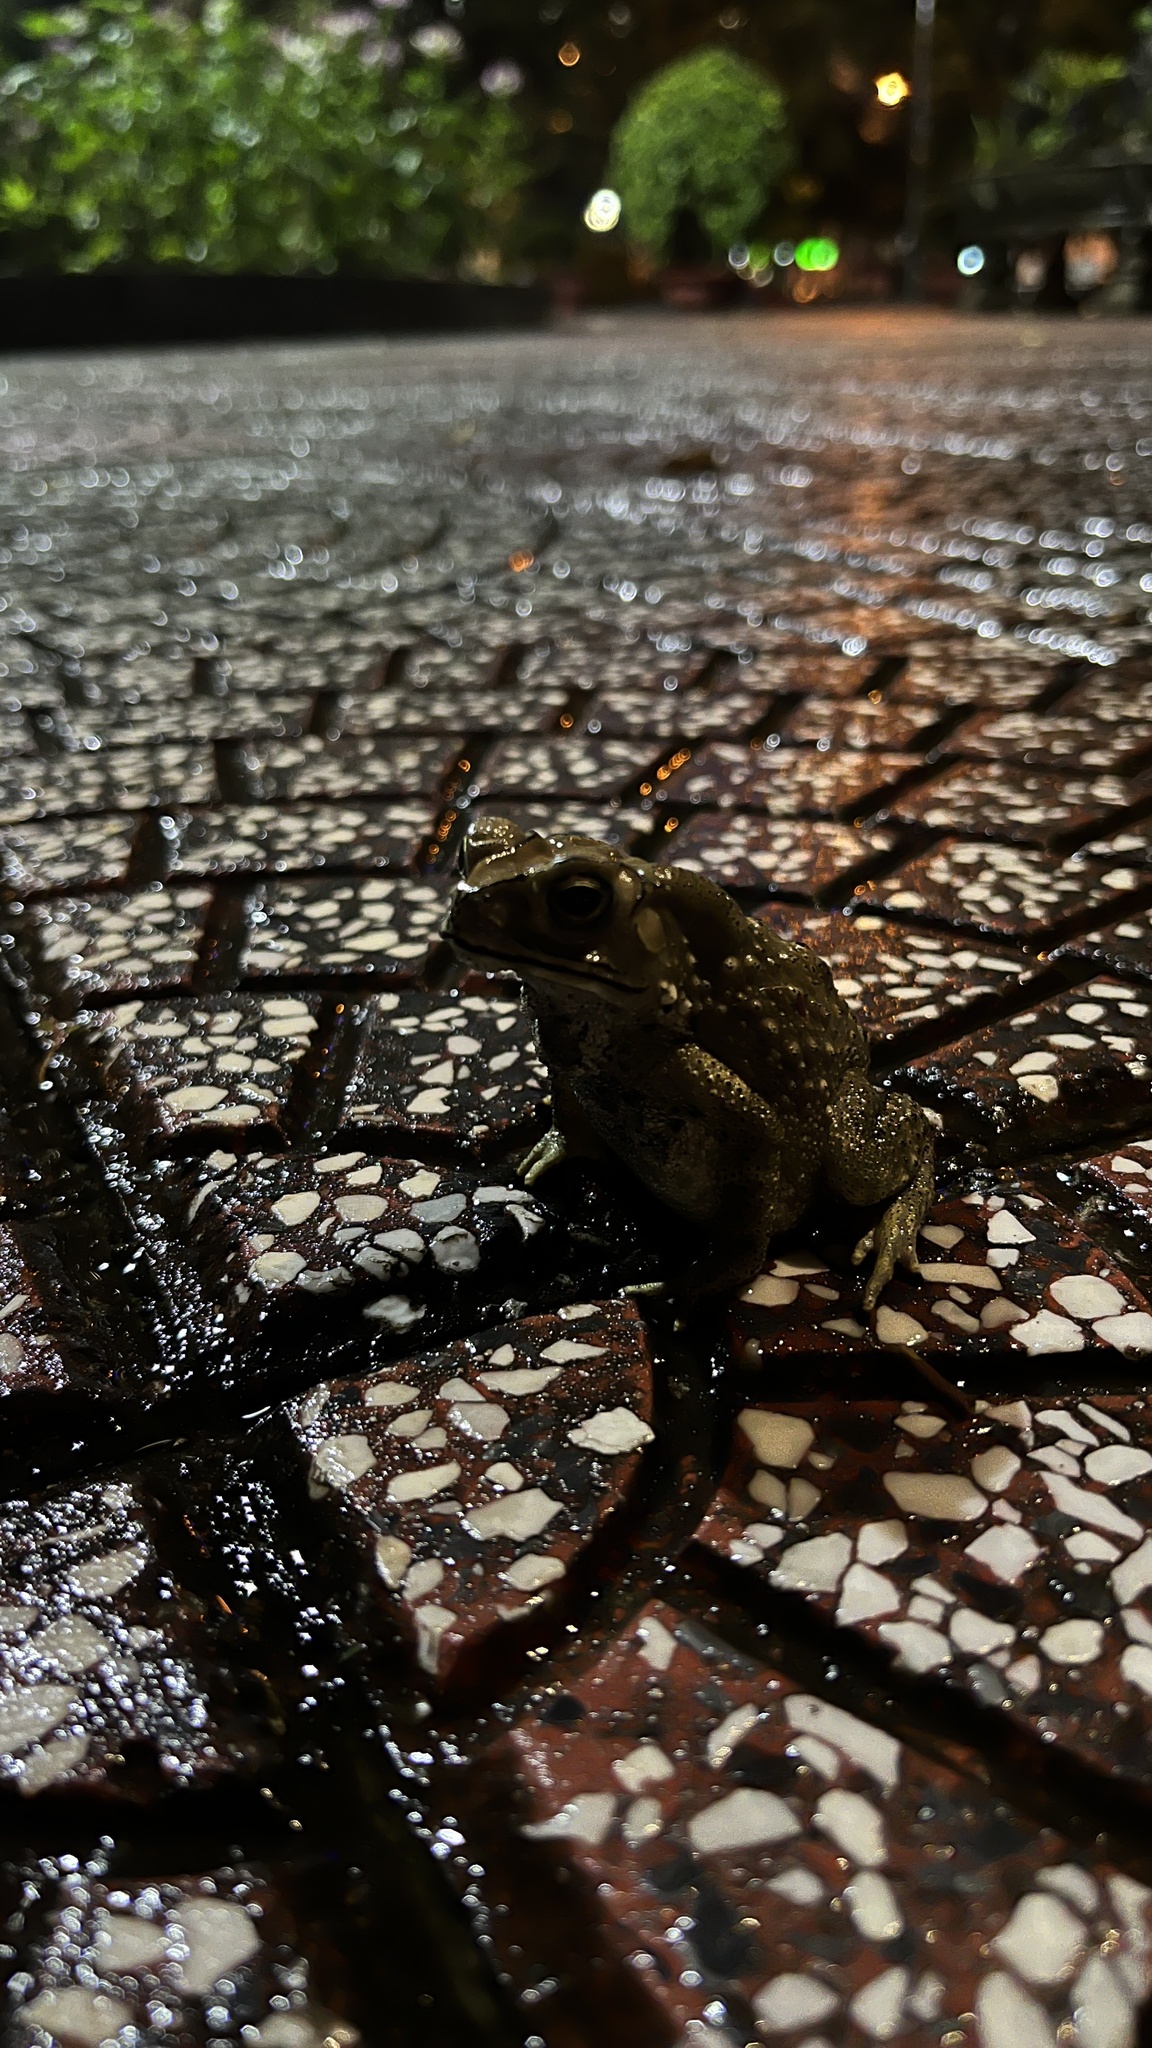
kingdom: Animalia
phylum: Chordata
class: Amphibia
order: Anura
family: Bufonidae
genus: Duttaphrynus
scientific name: Duttaphrynus melanostictus
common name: Common sunda toad
